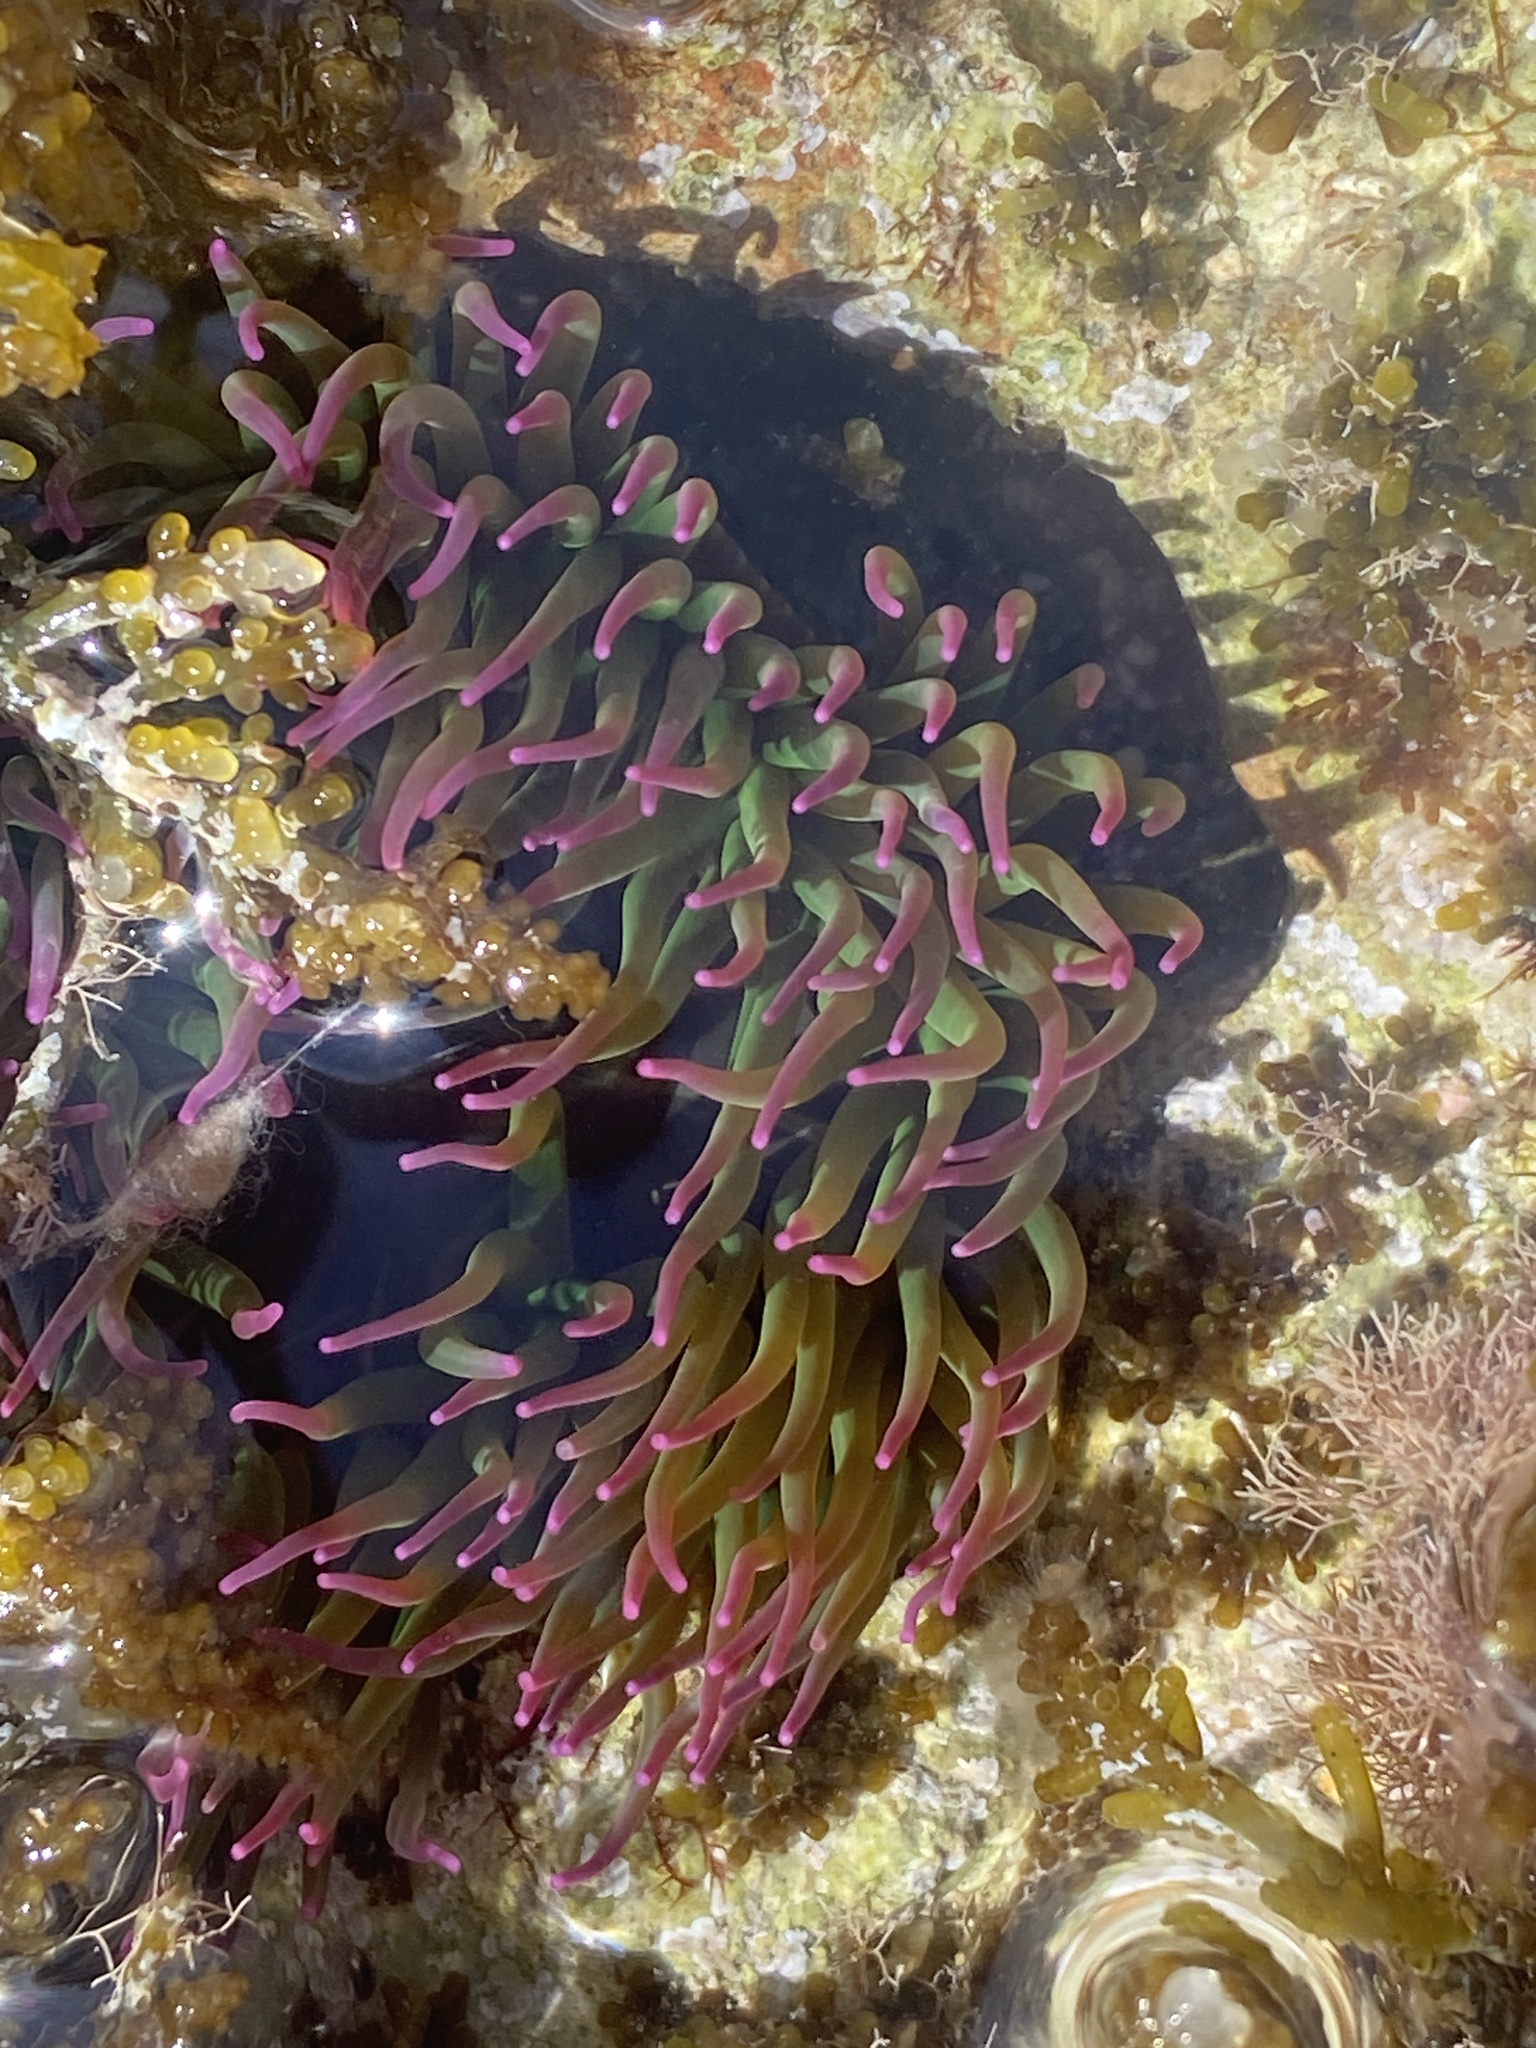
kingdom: Animalia
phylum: Cnidaria
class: Anthozoa
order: Actiniaria
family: Actiniidae
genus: Anemonia
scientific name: Anemonia viridis
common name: Snakelocks anemone
